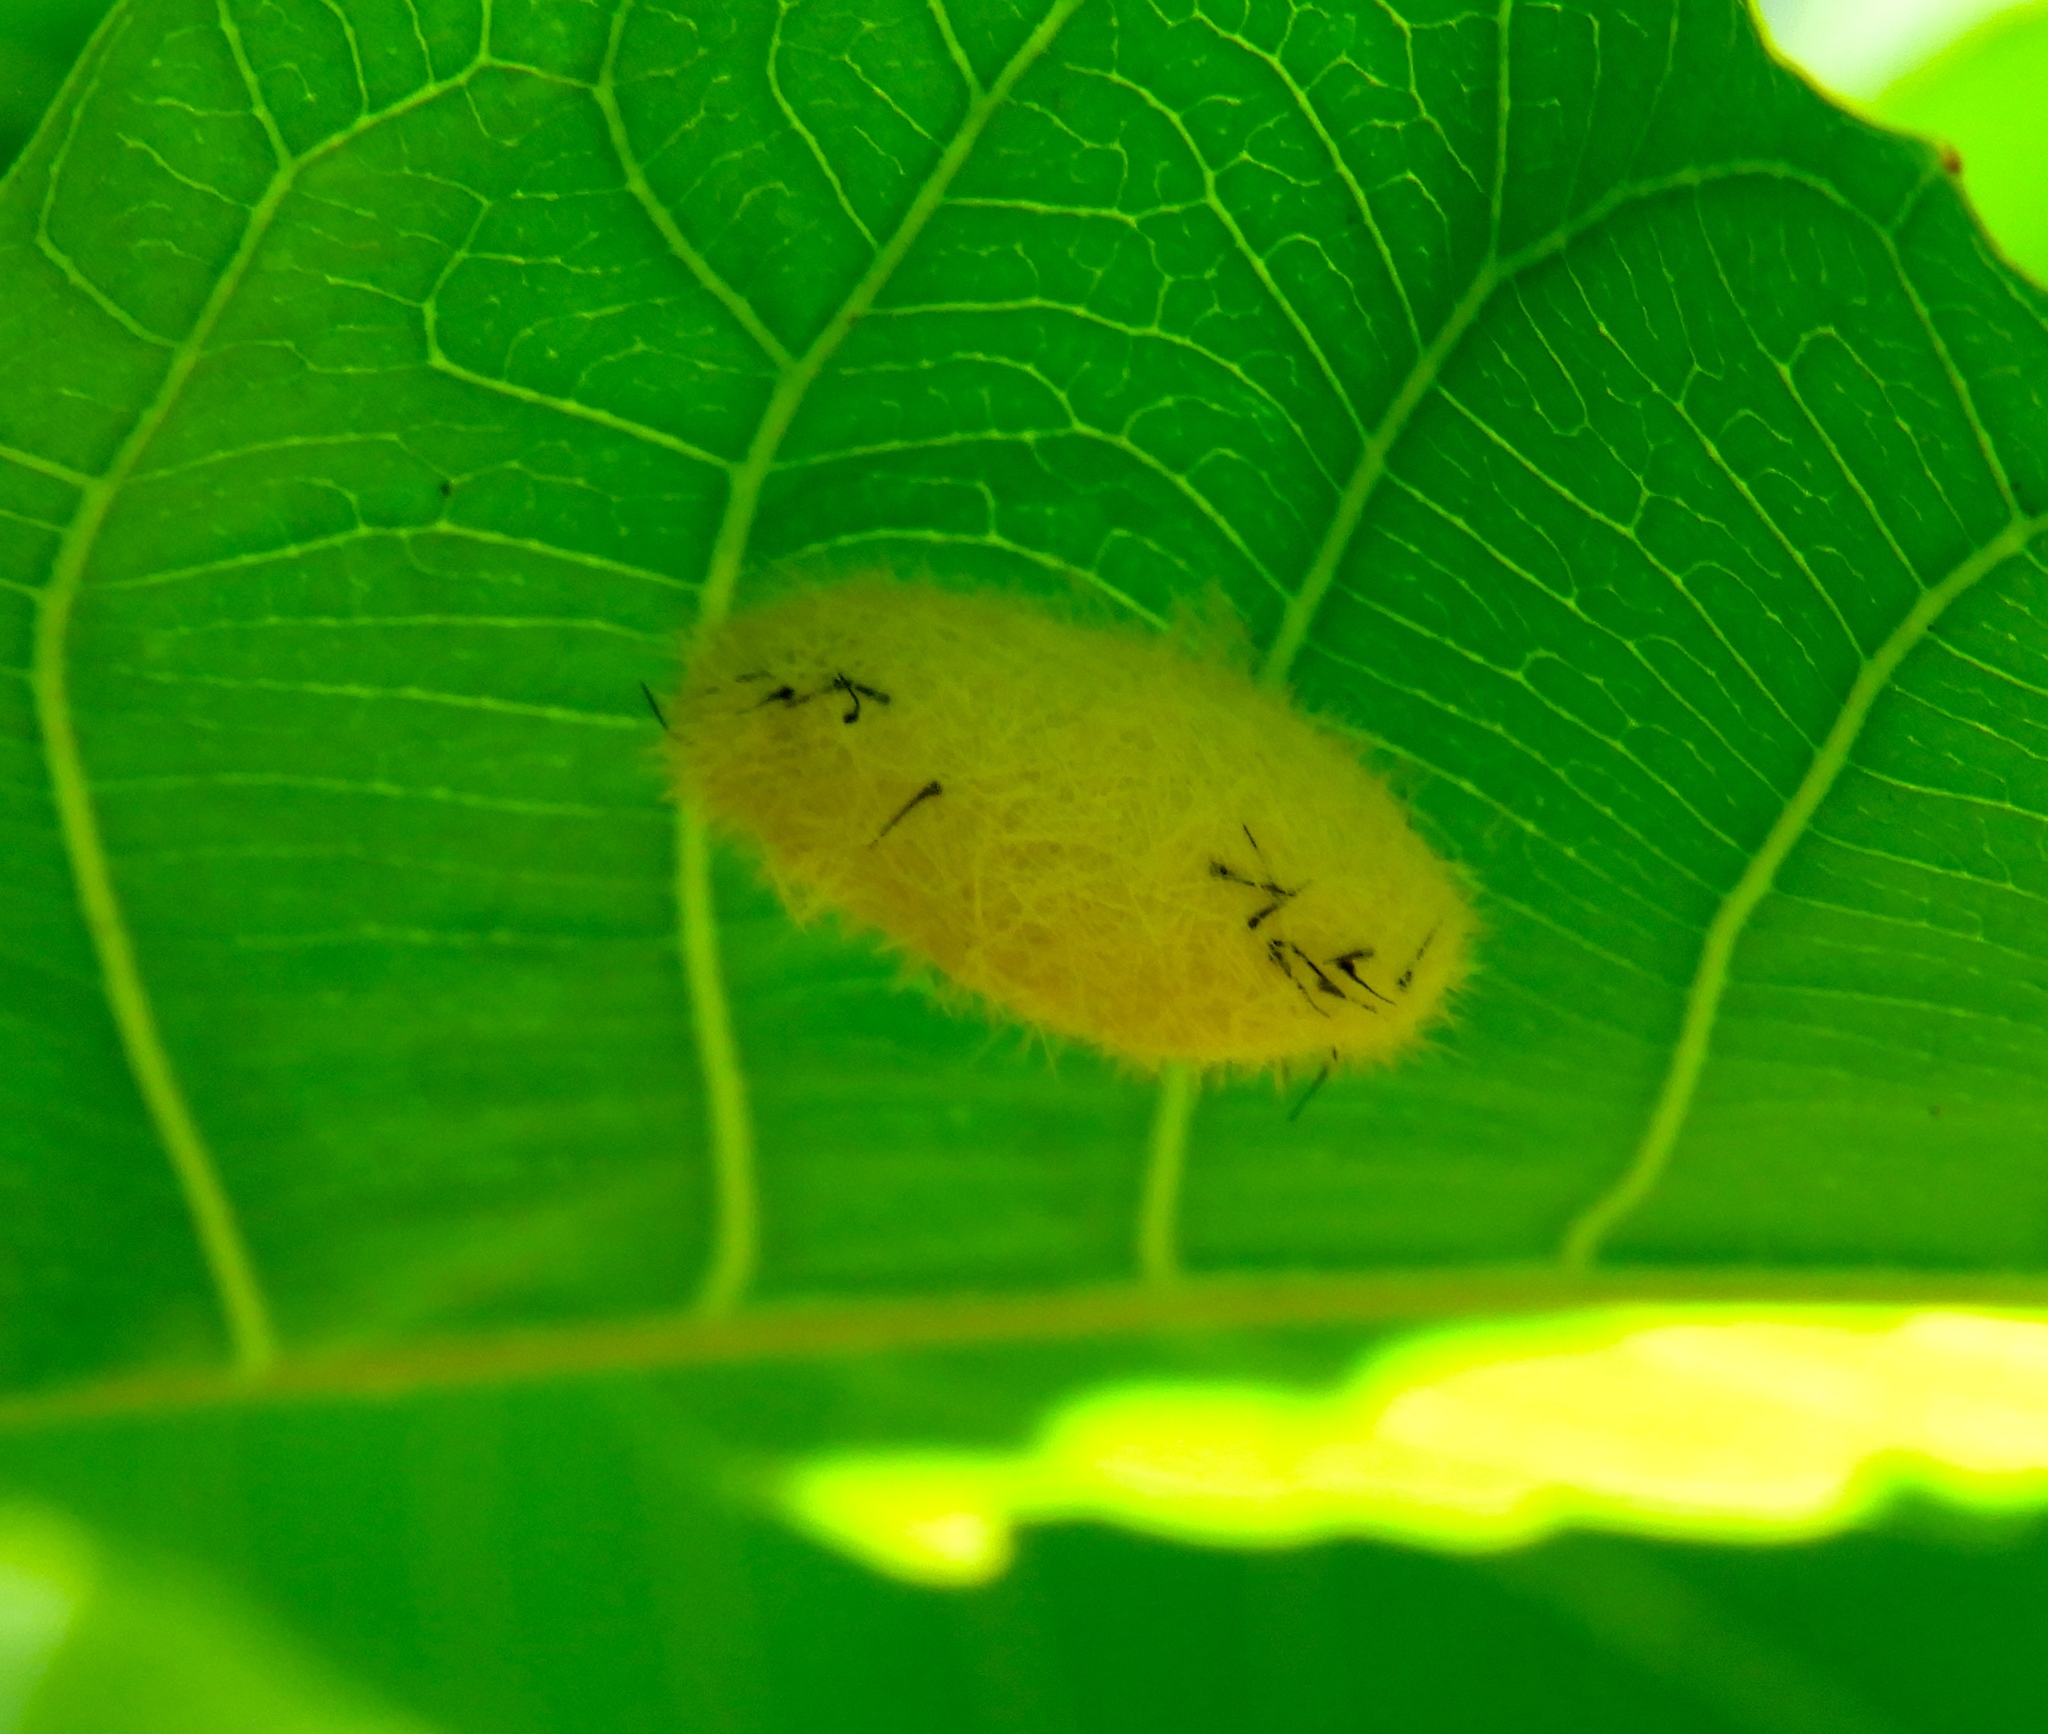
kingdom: Animalia
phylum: Arthropoda
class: Insecta
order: Lepidoptera
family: Erebidae
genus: Lophocampa
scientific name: Lophocampa annulosa
